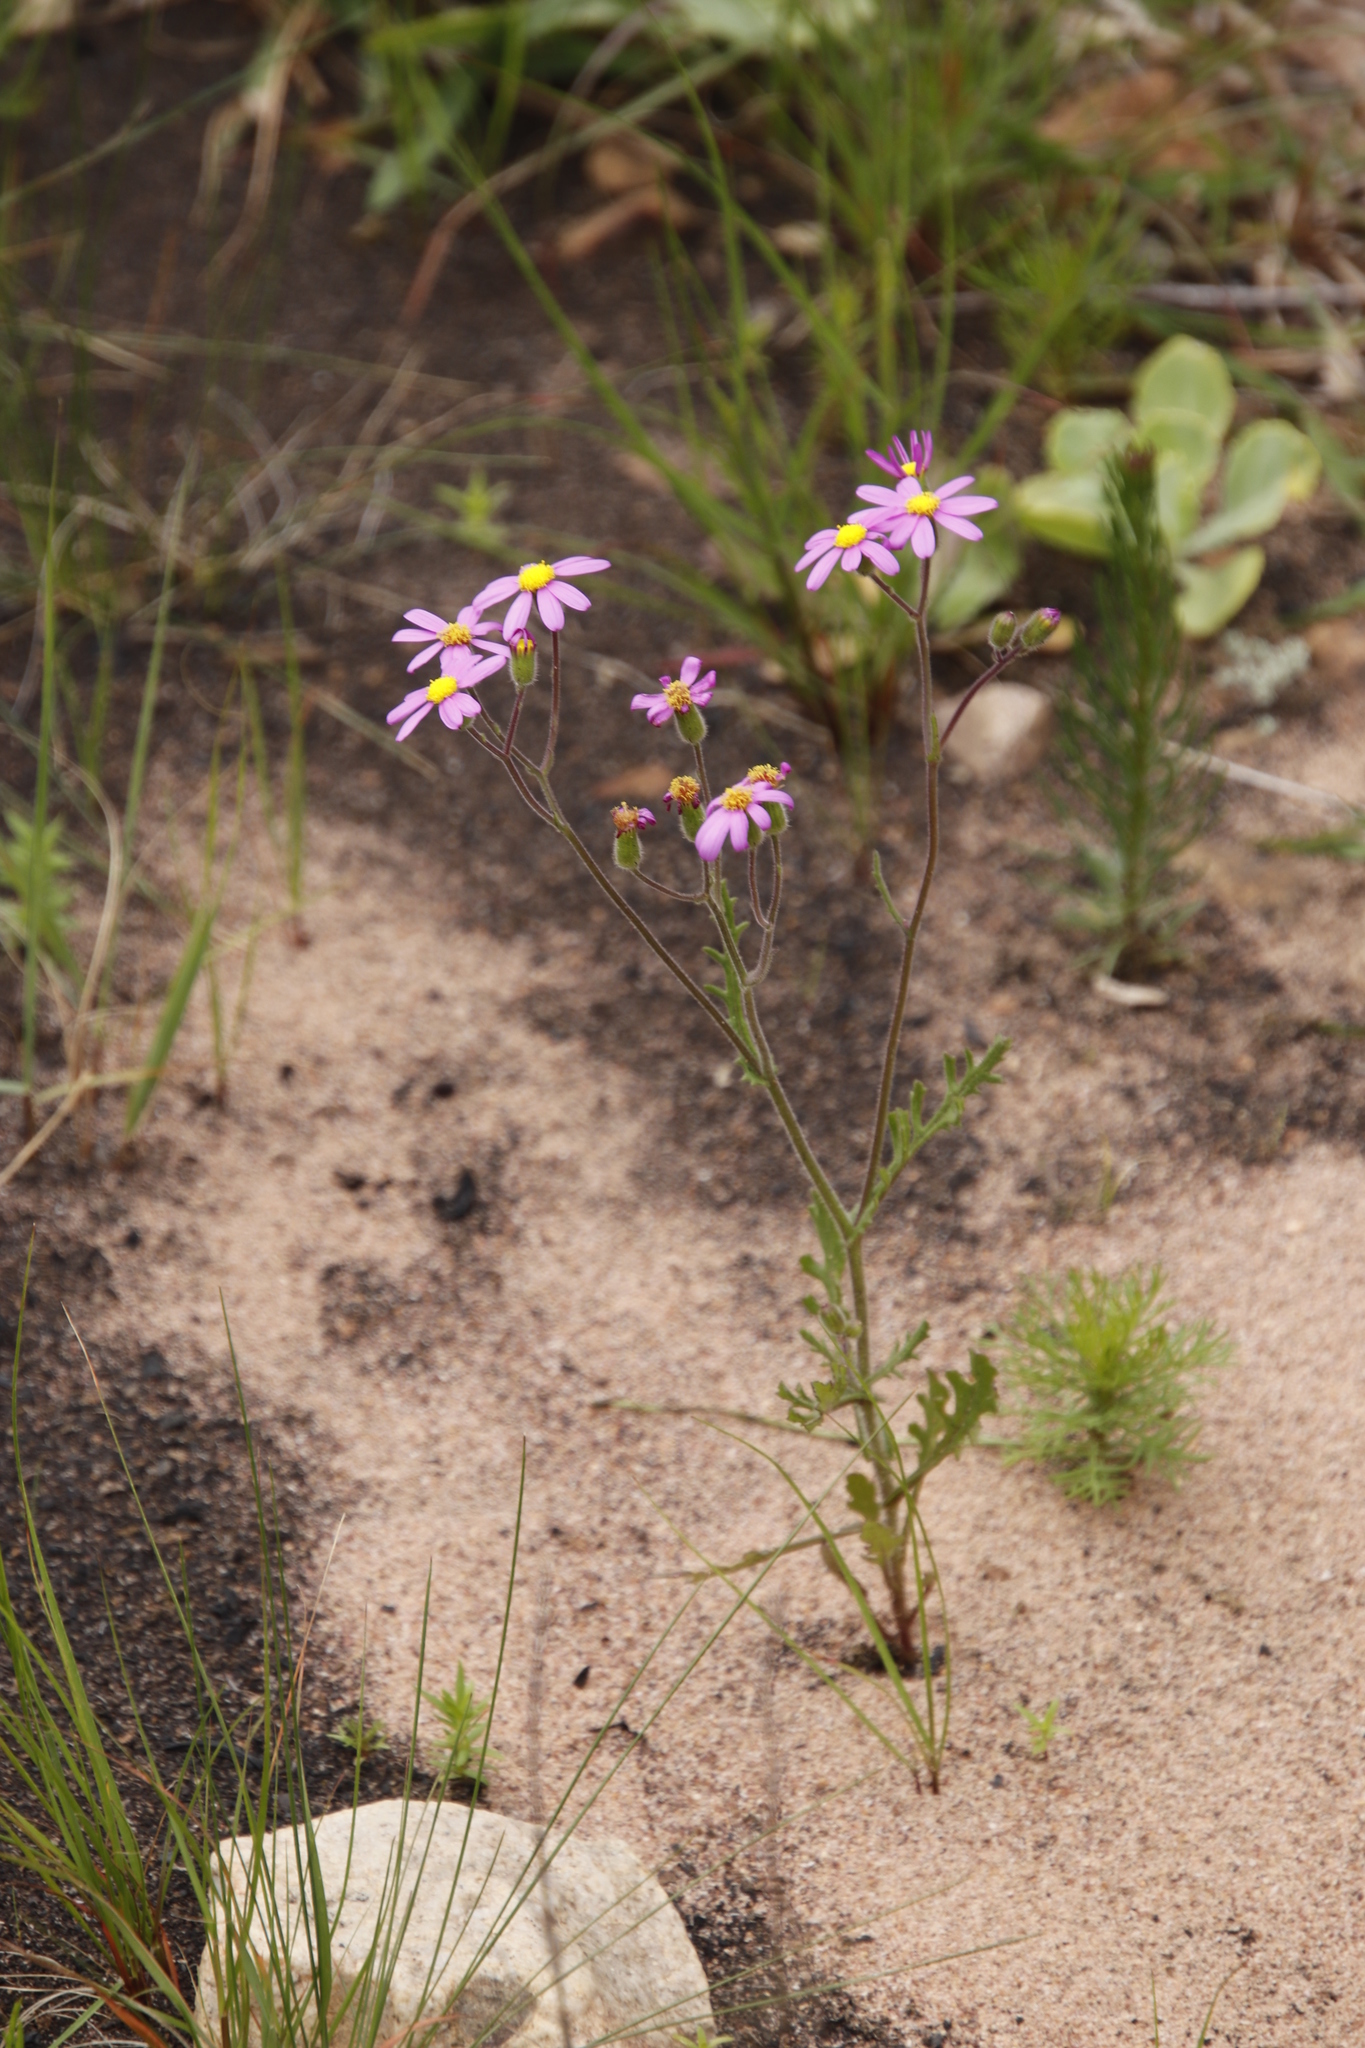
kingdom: Plantae
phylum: Tracheophyta
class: Magnoliopsida
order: Asterales
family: Asteraceae
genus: Senecio
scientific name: Senecio arenarius
